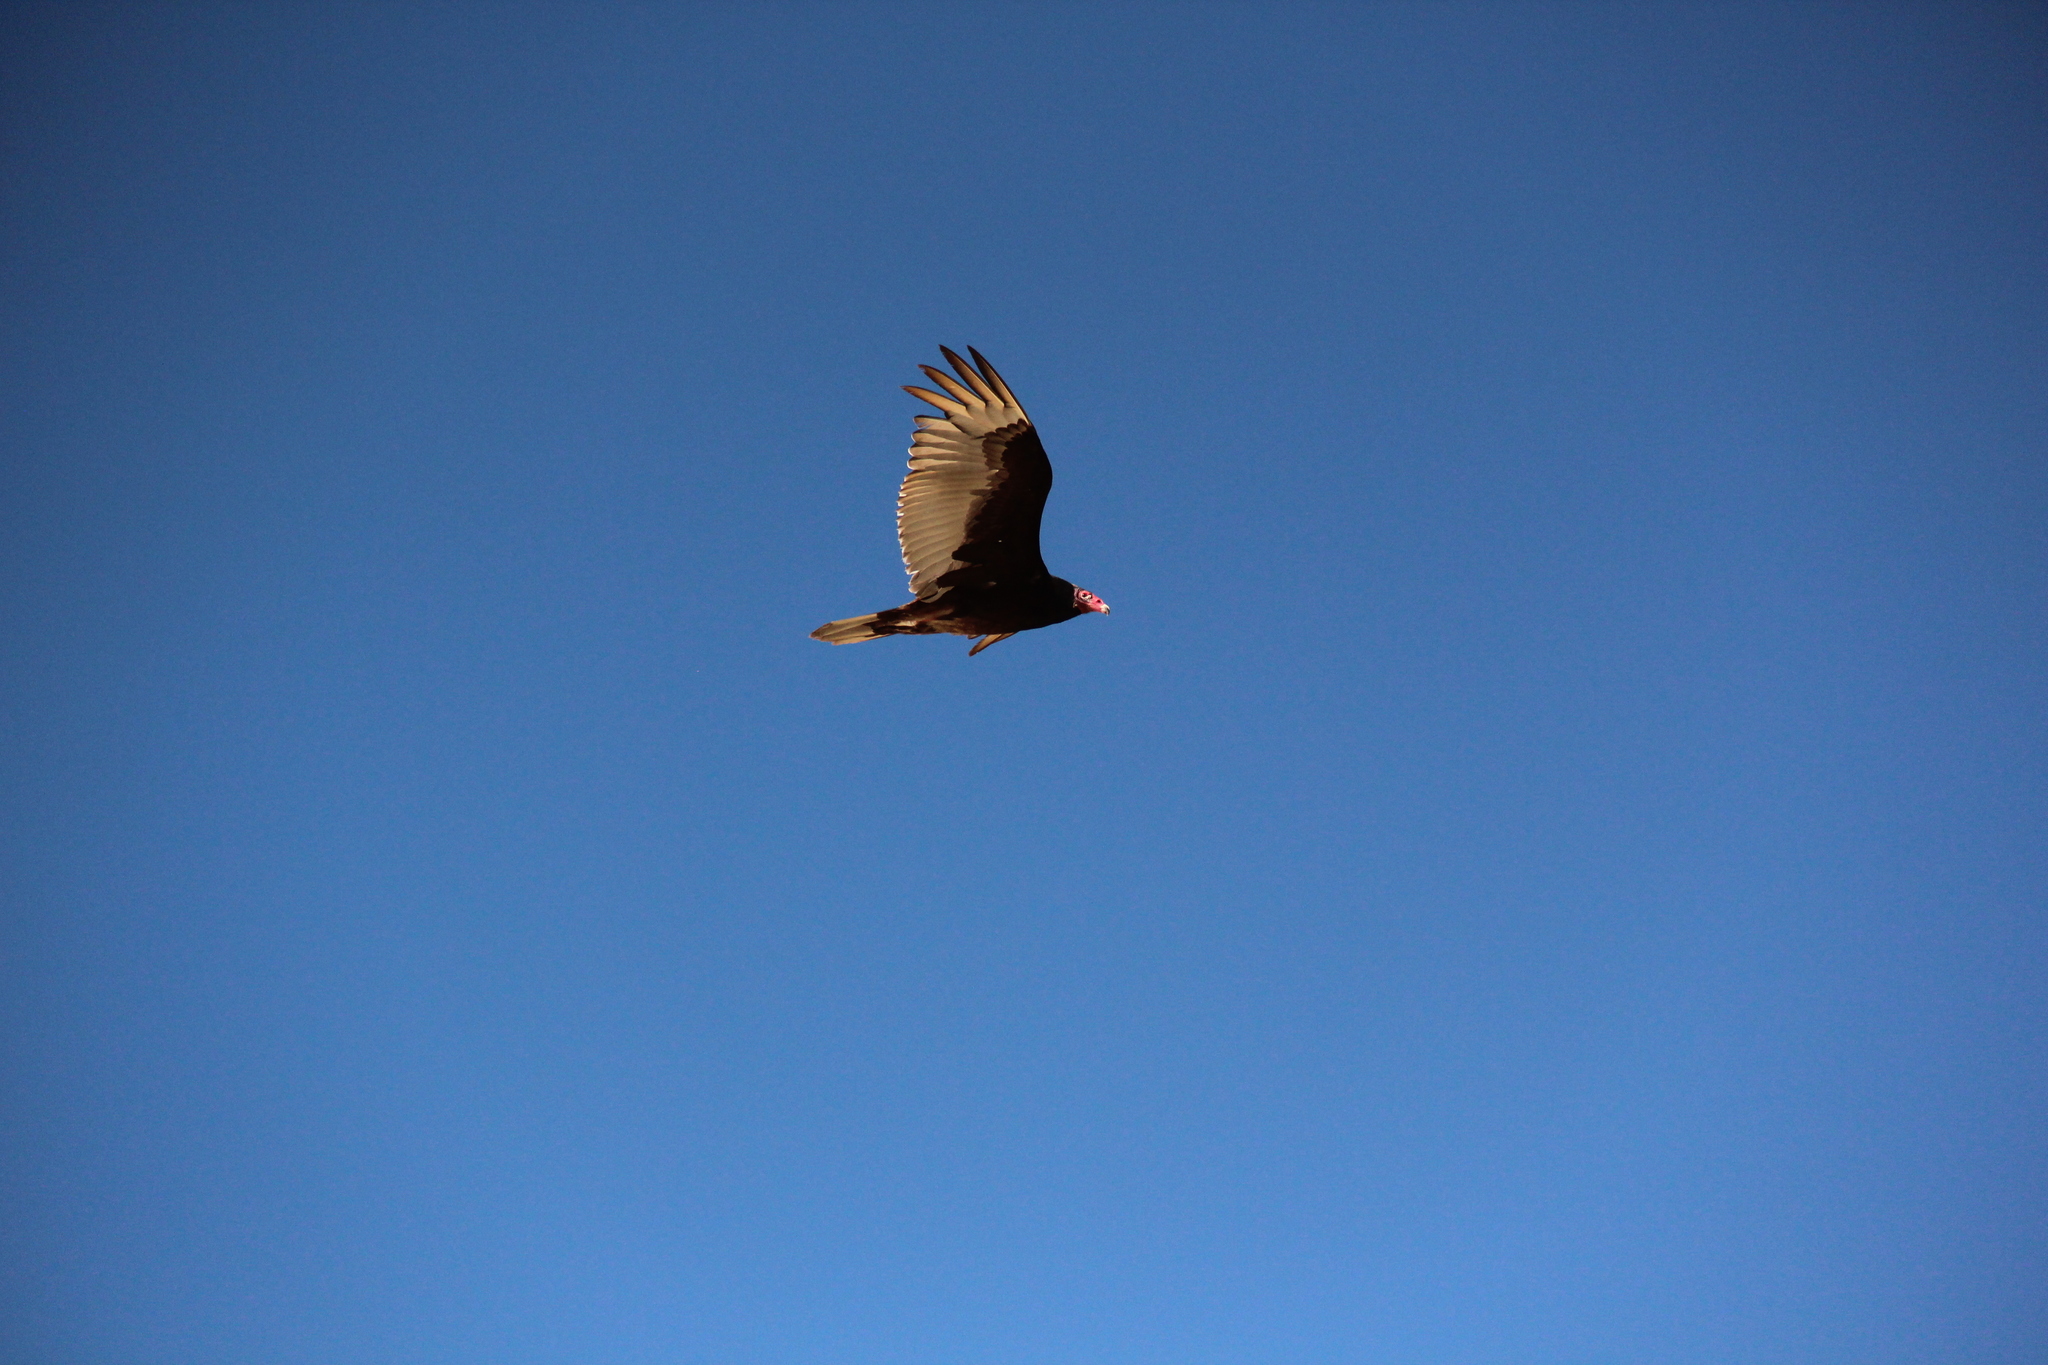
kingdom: Animalia
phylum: Chordata
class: Aves
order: Accipitriformes
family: Cathartidae
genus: Cathartes
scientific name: Cathartes aura
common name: Turkey vulture
